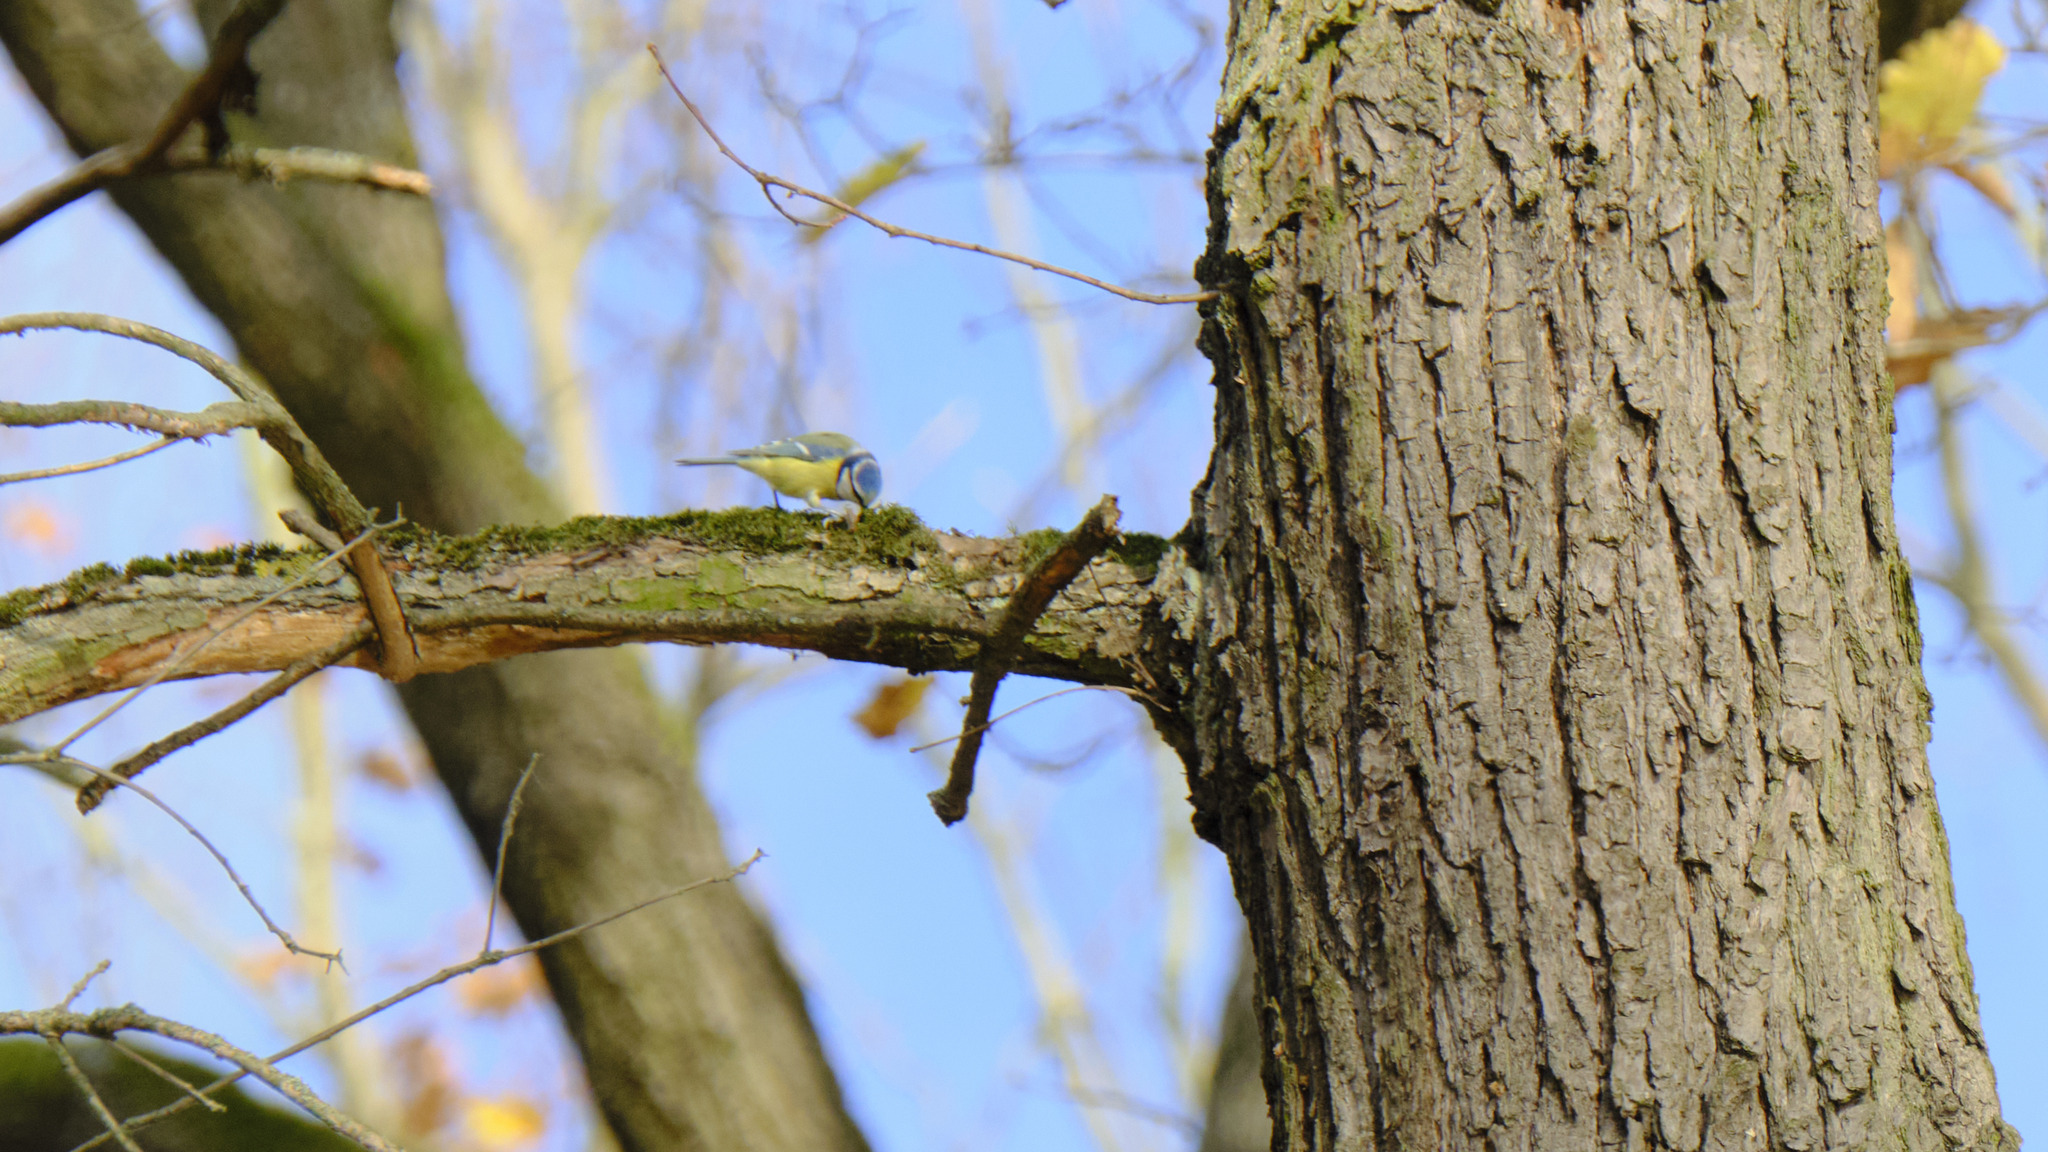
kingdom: Animalia
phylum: Chordata
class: Aves
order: Passeriformes
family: Paridae
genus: Cyanistes
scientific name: Cyanistes caeruleus
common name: Eurasian blue tit
